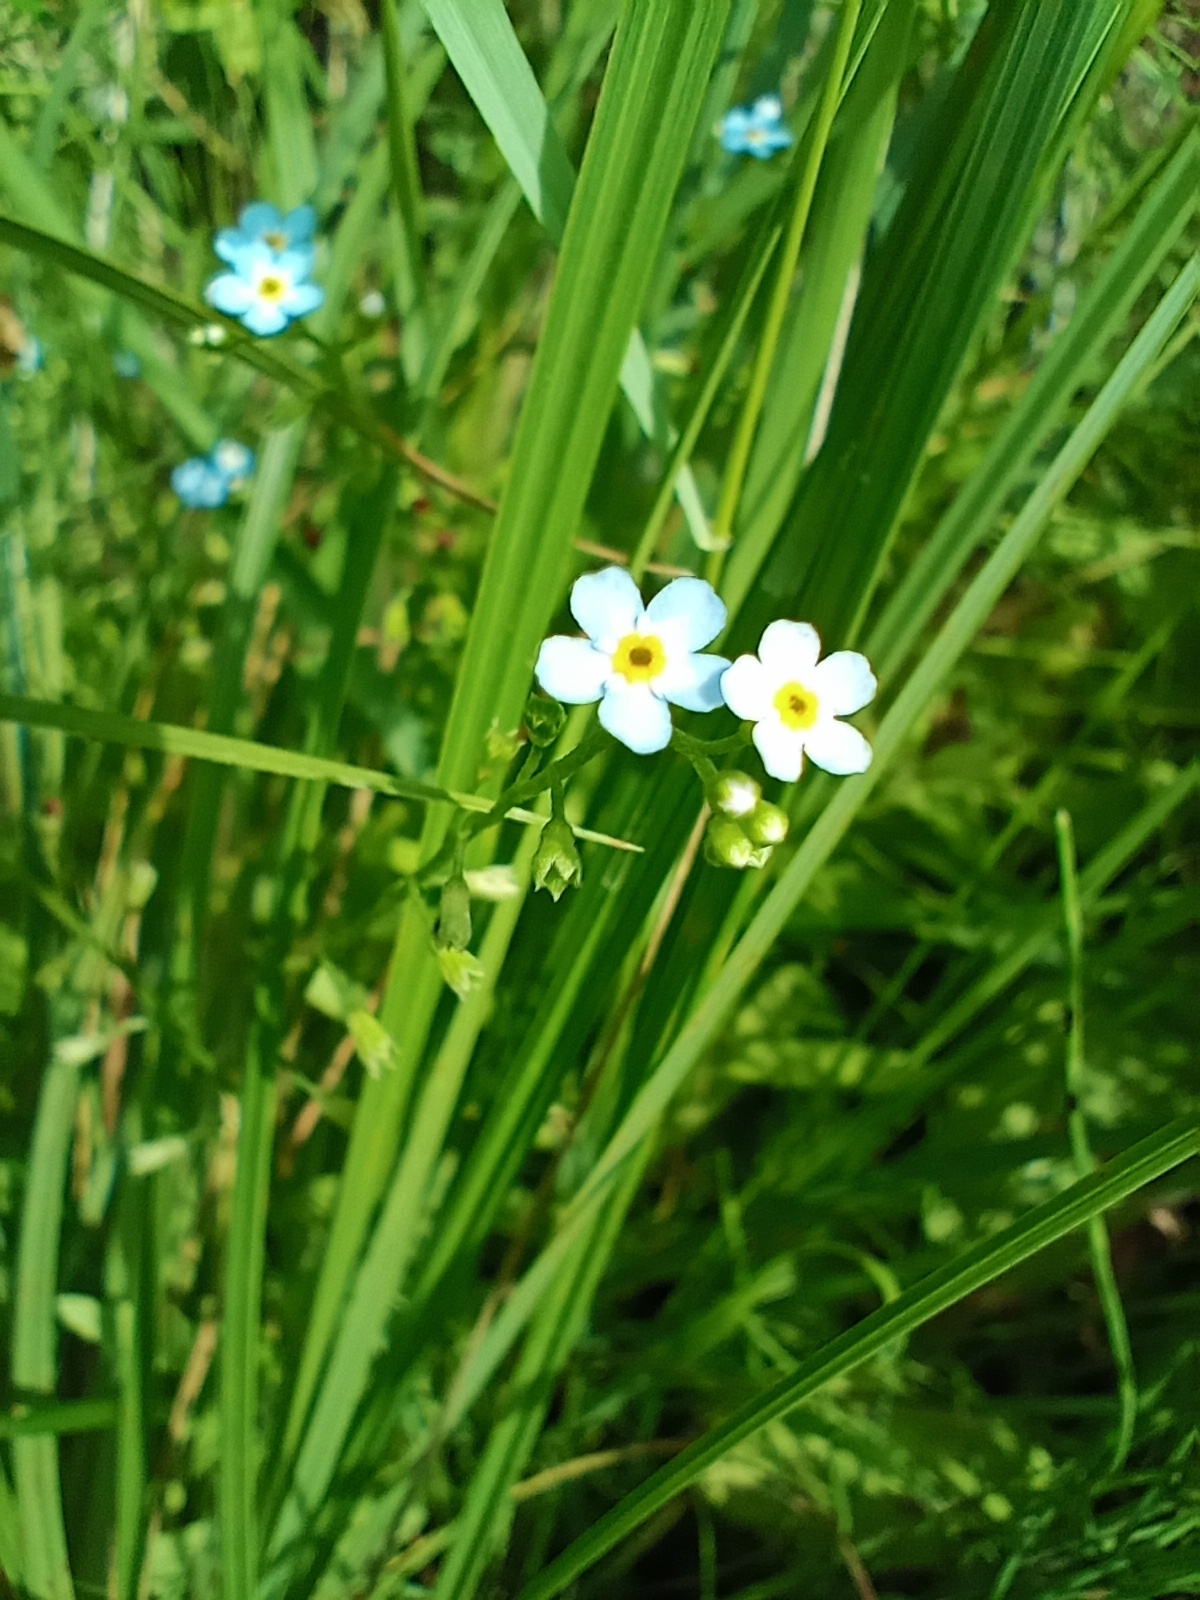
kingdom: Plantae
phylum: Tracheophyta
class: Magnoliopsida
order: Boraginales
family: Boraginaceae
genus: Myosotis
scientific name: Myosotis scorpioides
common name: Water forget-me-not
